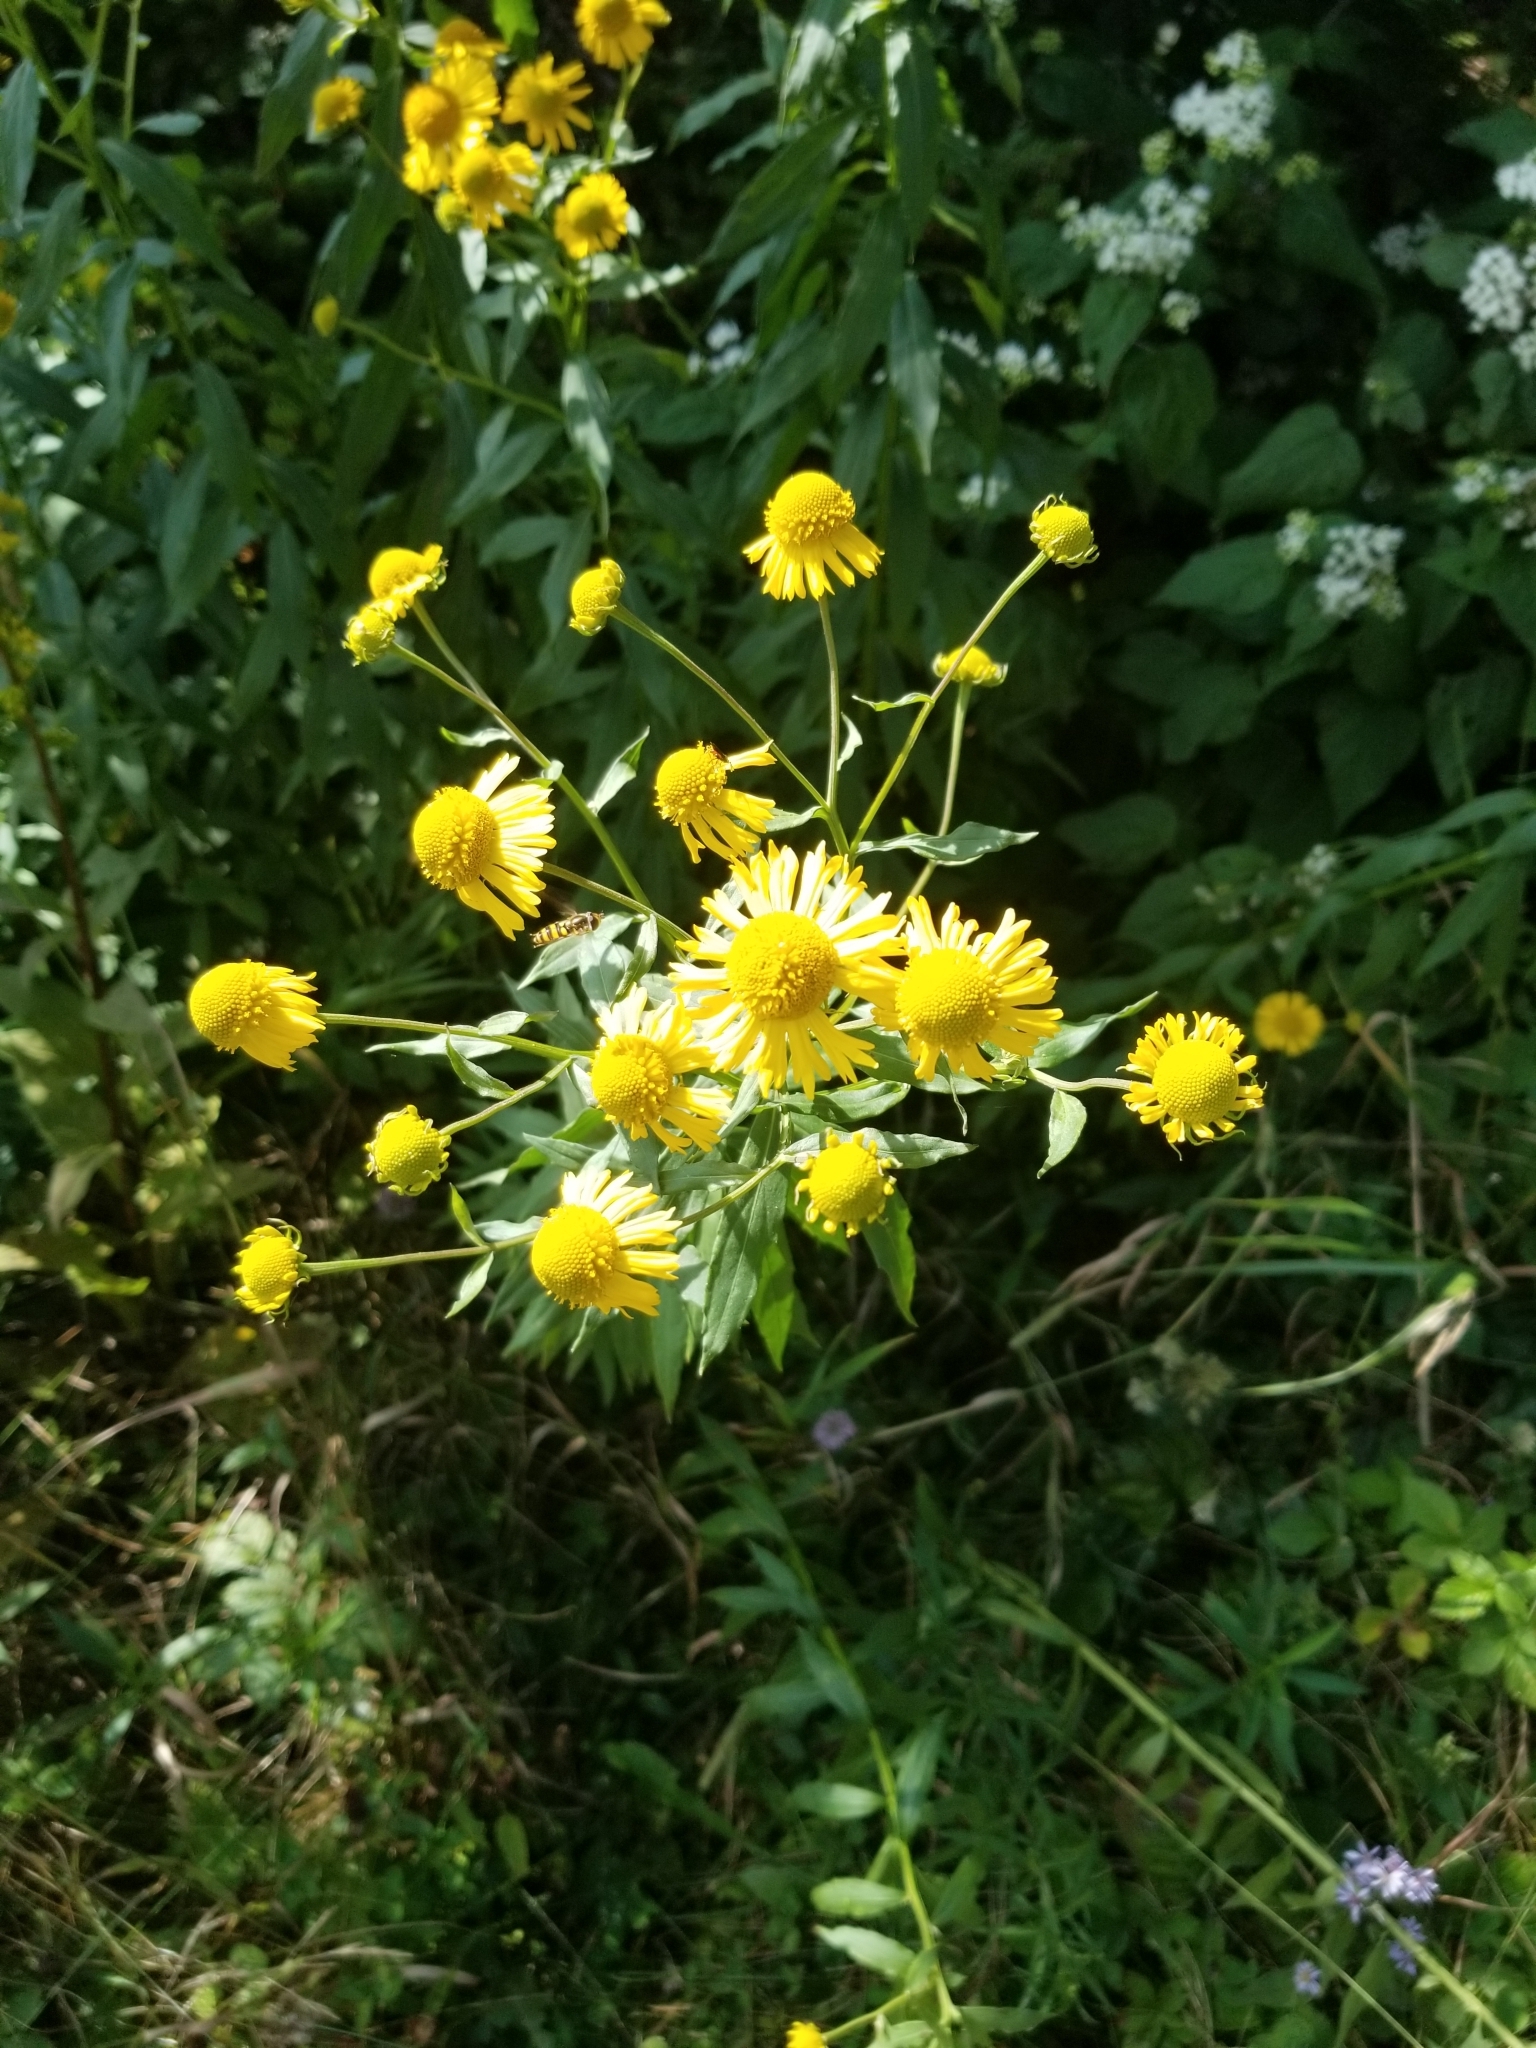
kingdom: Plantae
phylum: Tracheophyta
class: Magnoliopsida
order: Asterales
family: Asteraceae
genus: Helenium
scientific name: Helenium autumnale
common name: Sneezeweed
